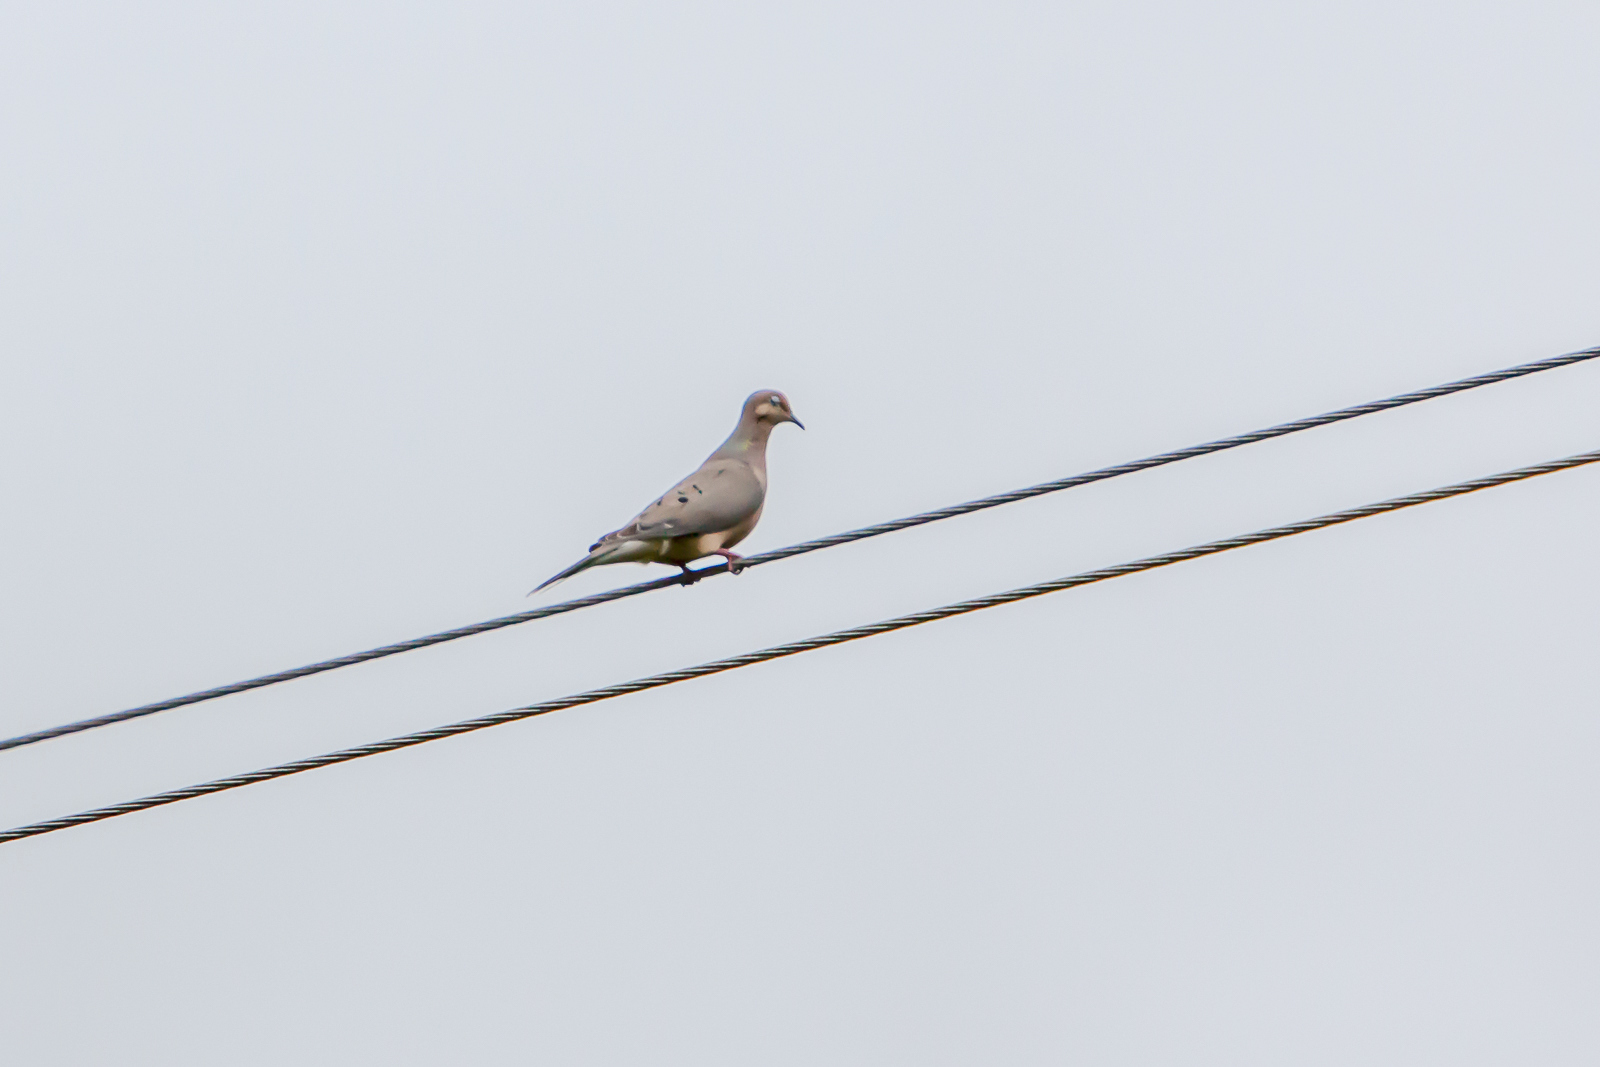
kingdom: Animalia
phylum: Chordata
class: Aves
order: Columbiformes
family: Columbidae
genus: Zenaida
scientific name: Zenaida macroura
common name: Mourning dove
